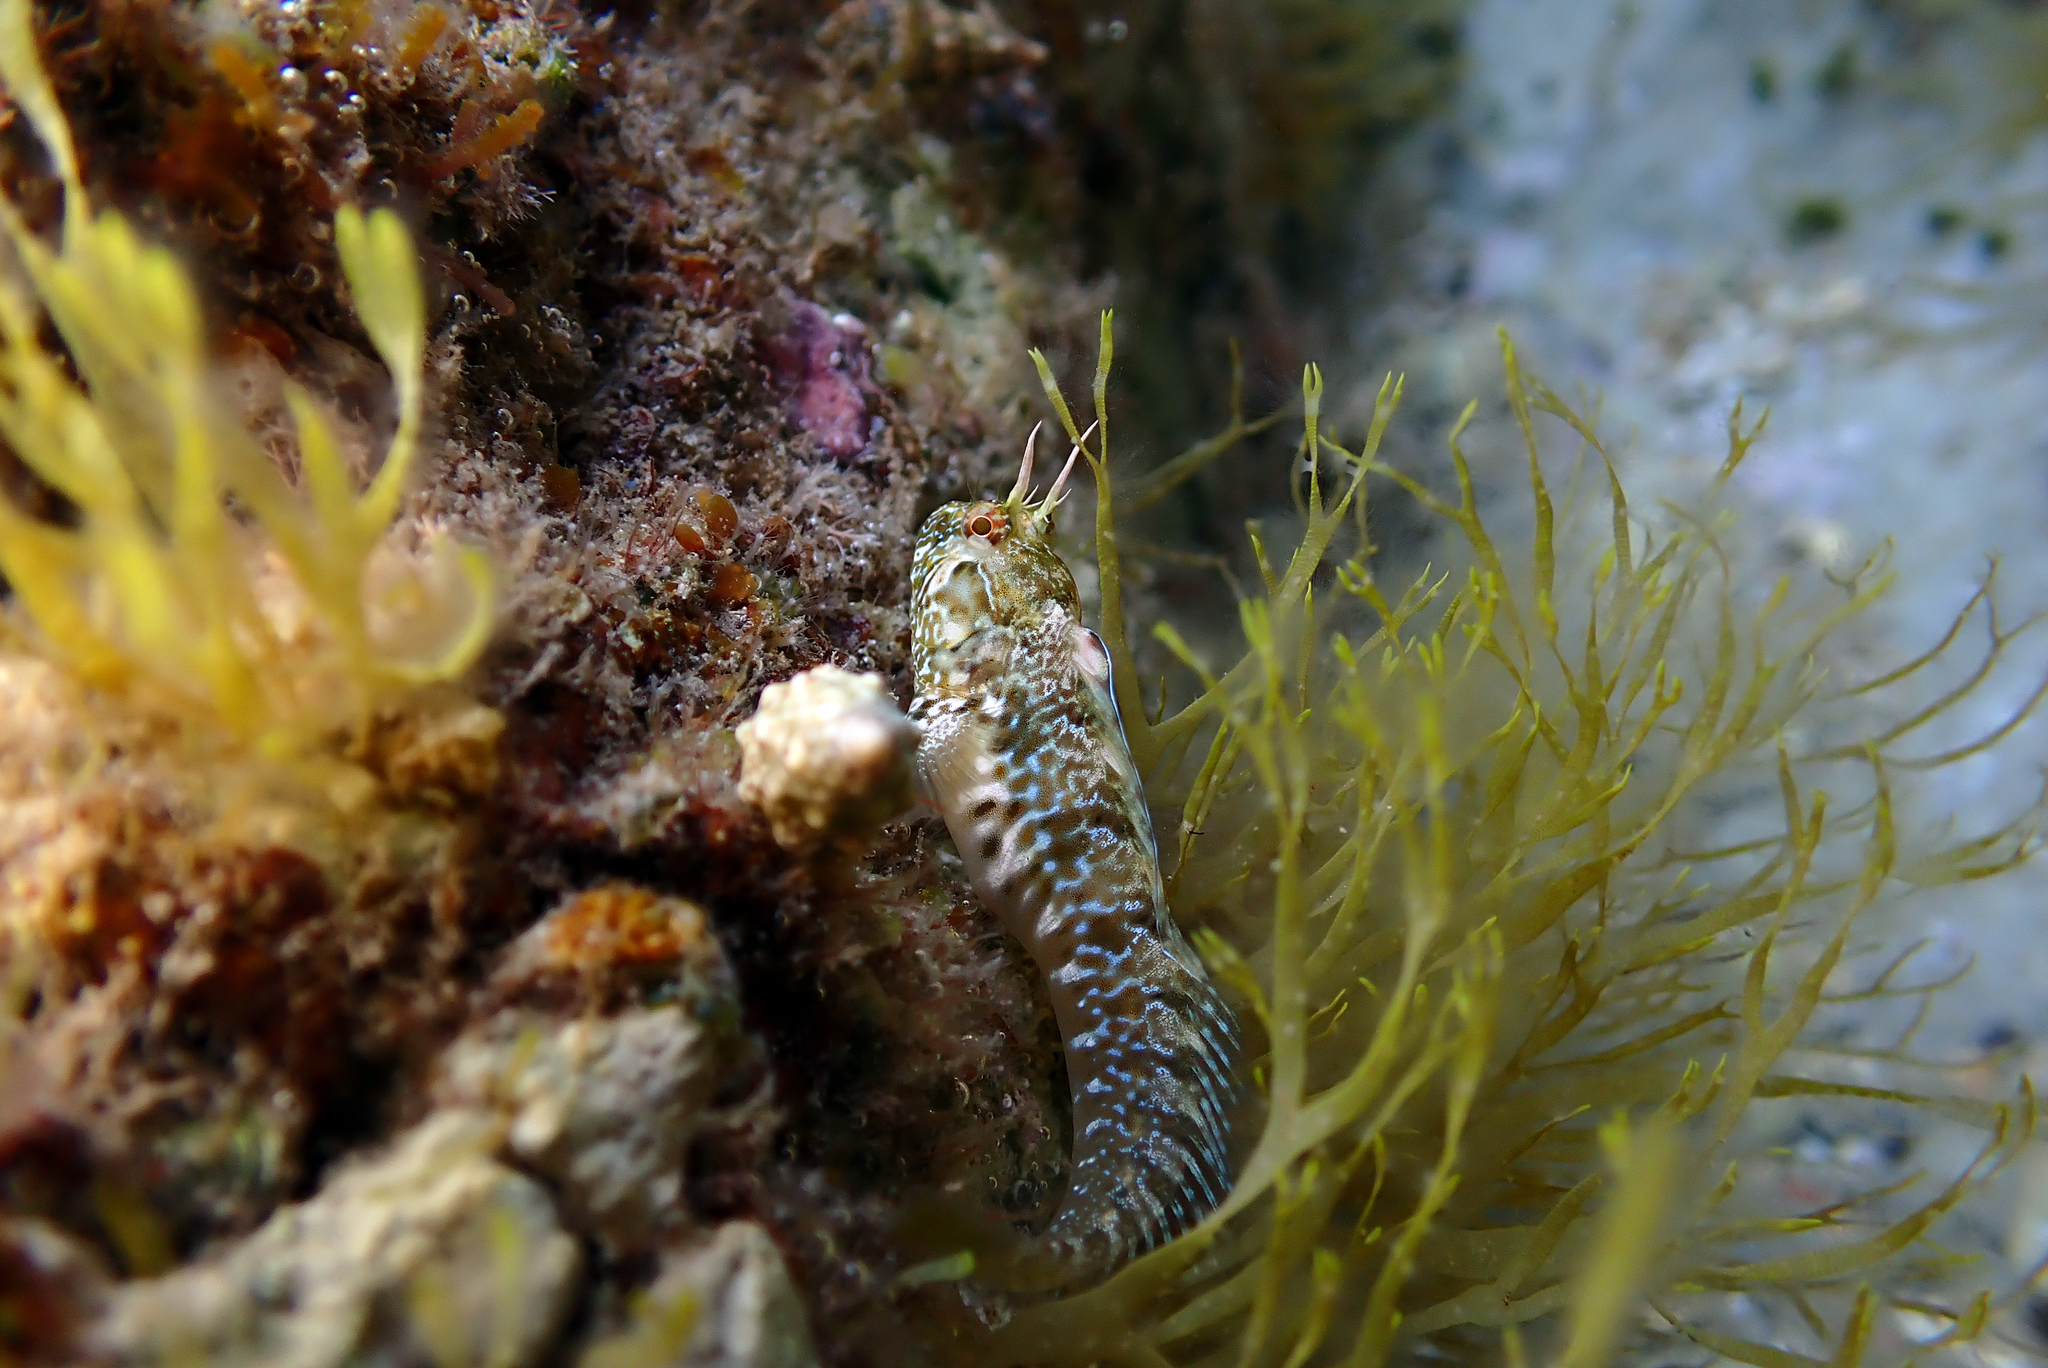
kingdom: Animalia
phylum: Chordata
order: Perciformes
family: Blenniidae
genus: Parablennius
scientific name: Parablennius incognitus
